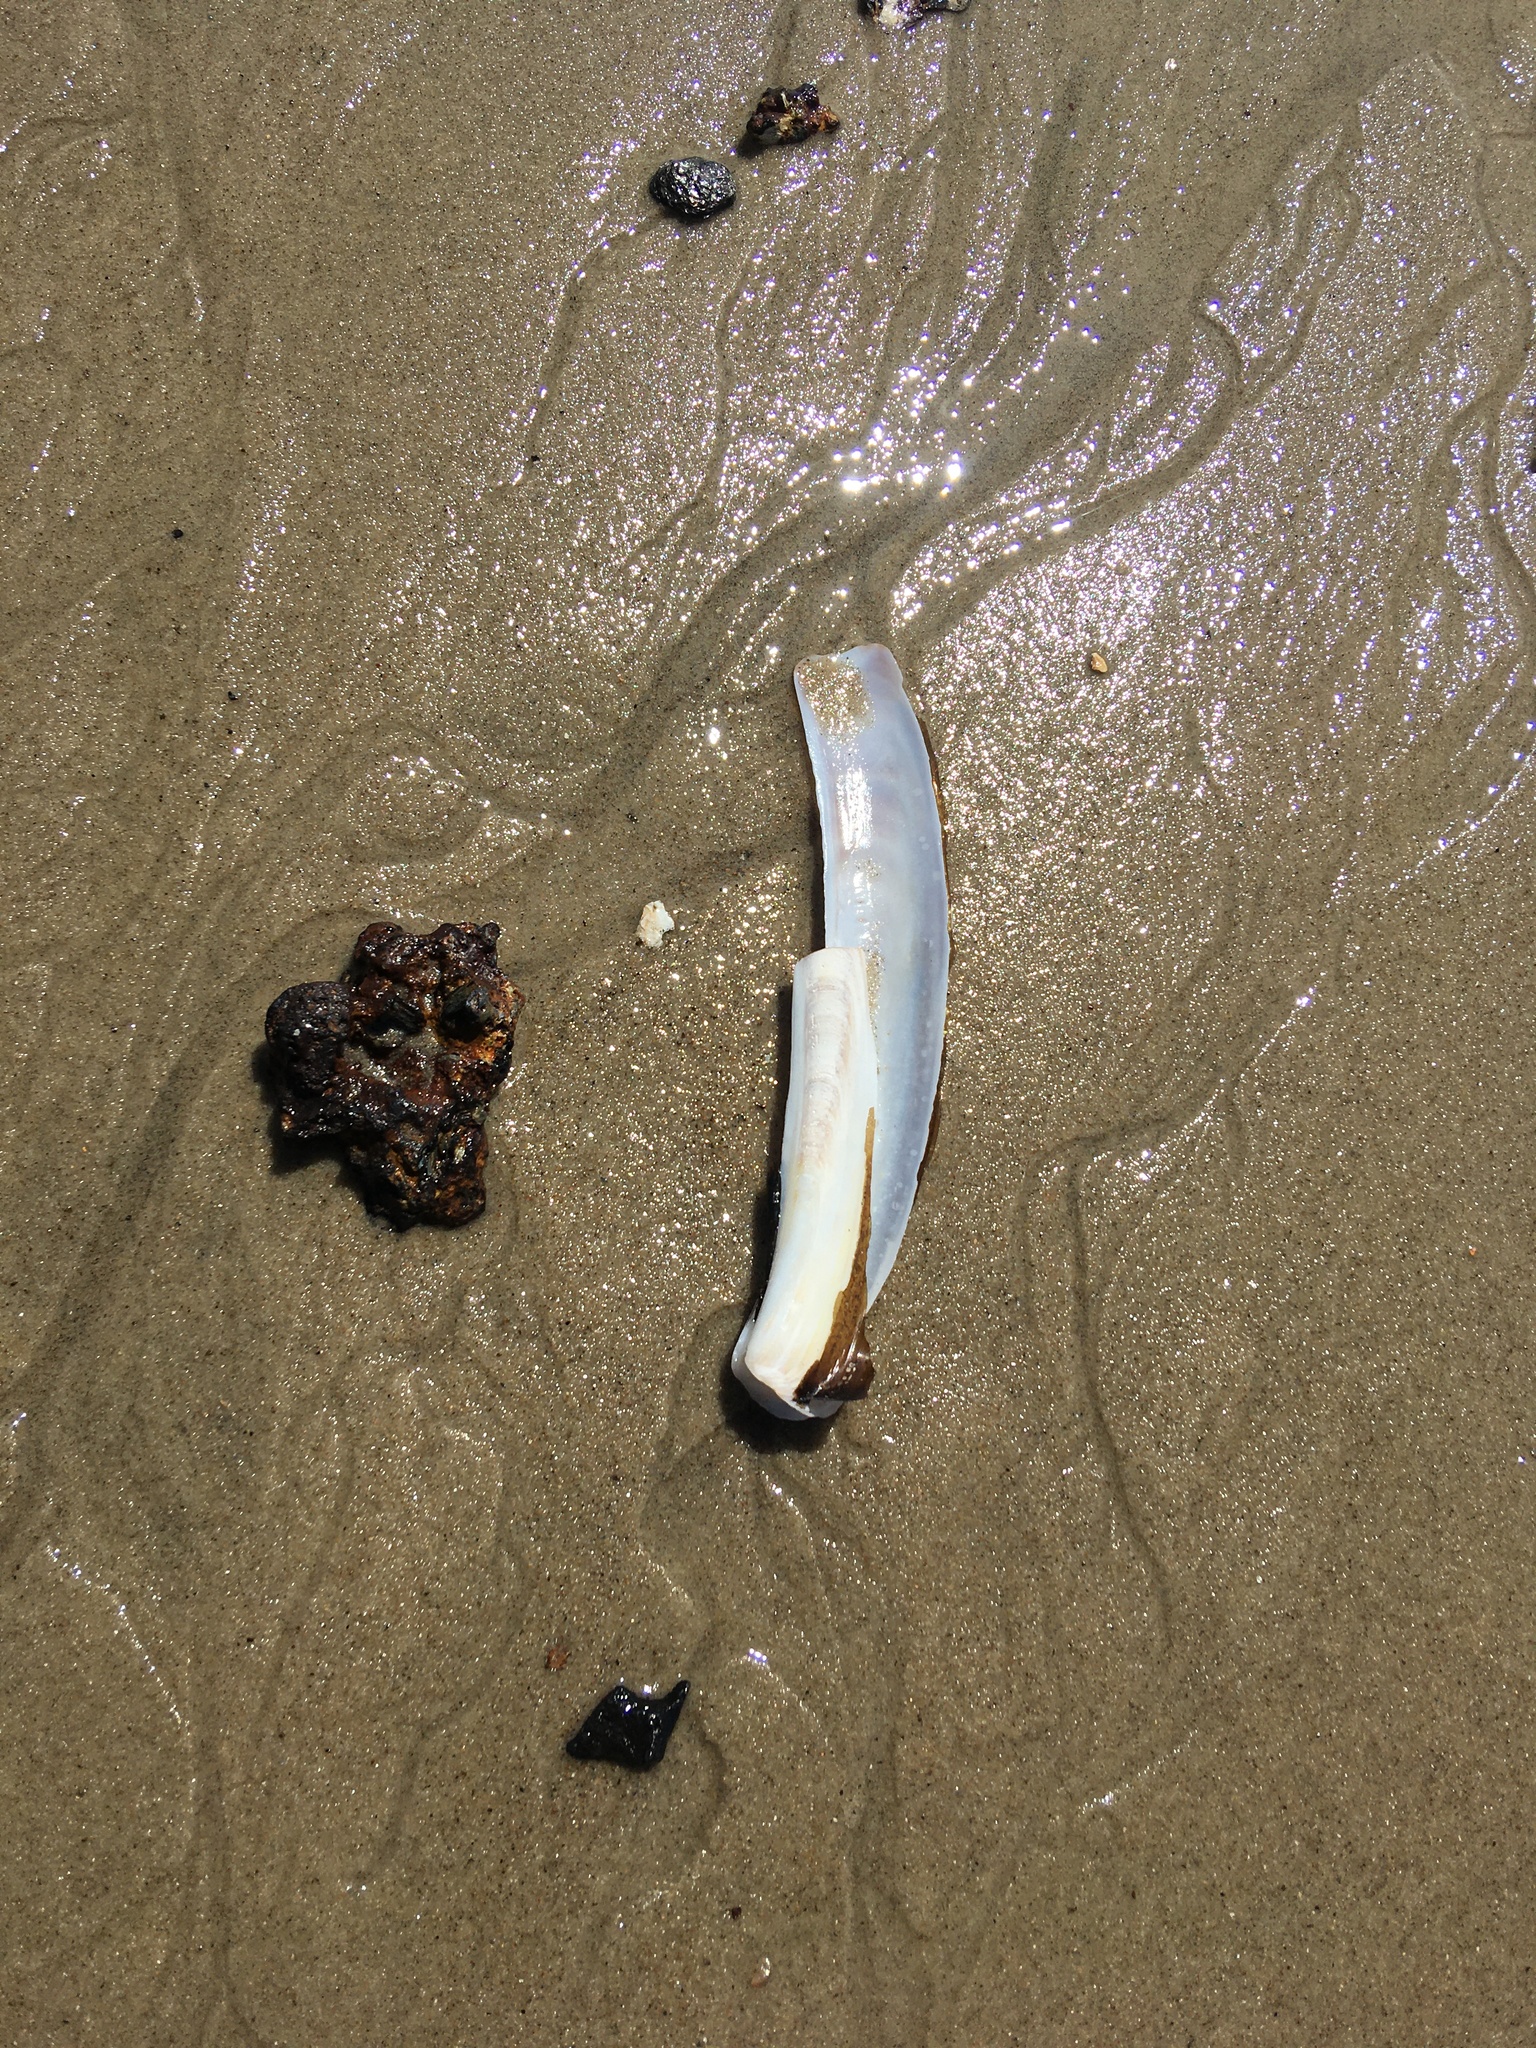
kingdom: Animalia
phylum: Mollusca
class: Bivalvia
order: Adapedonta
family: Pharidae
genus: Ensis
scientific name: Ensis leei
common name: American jack knife clam
